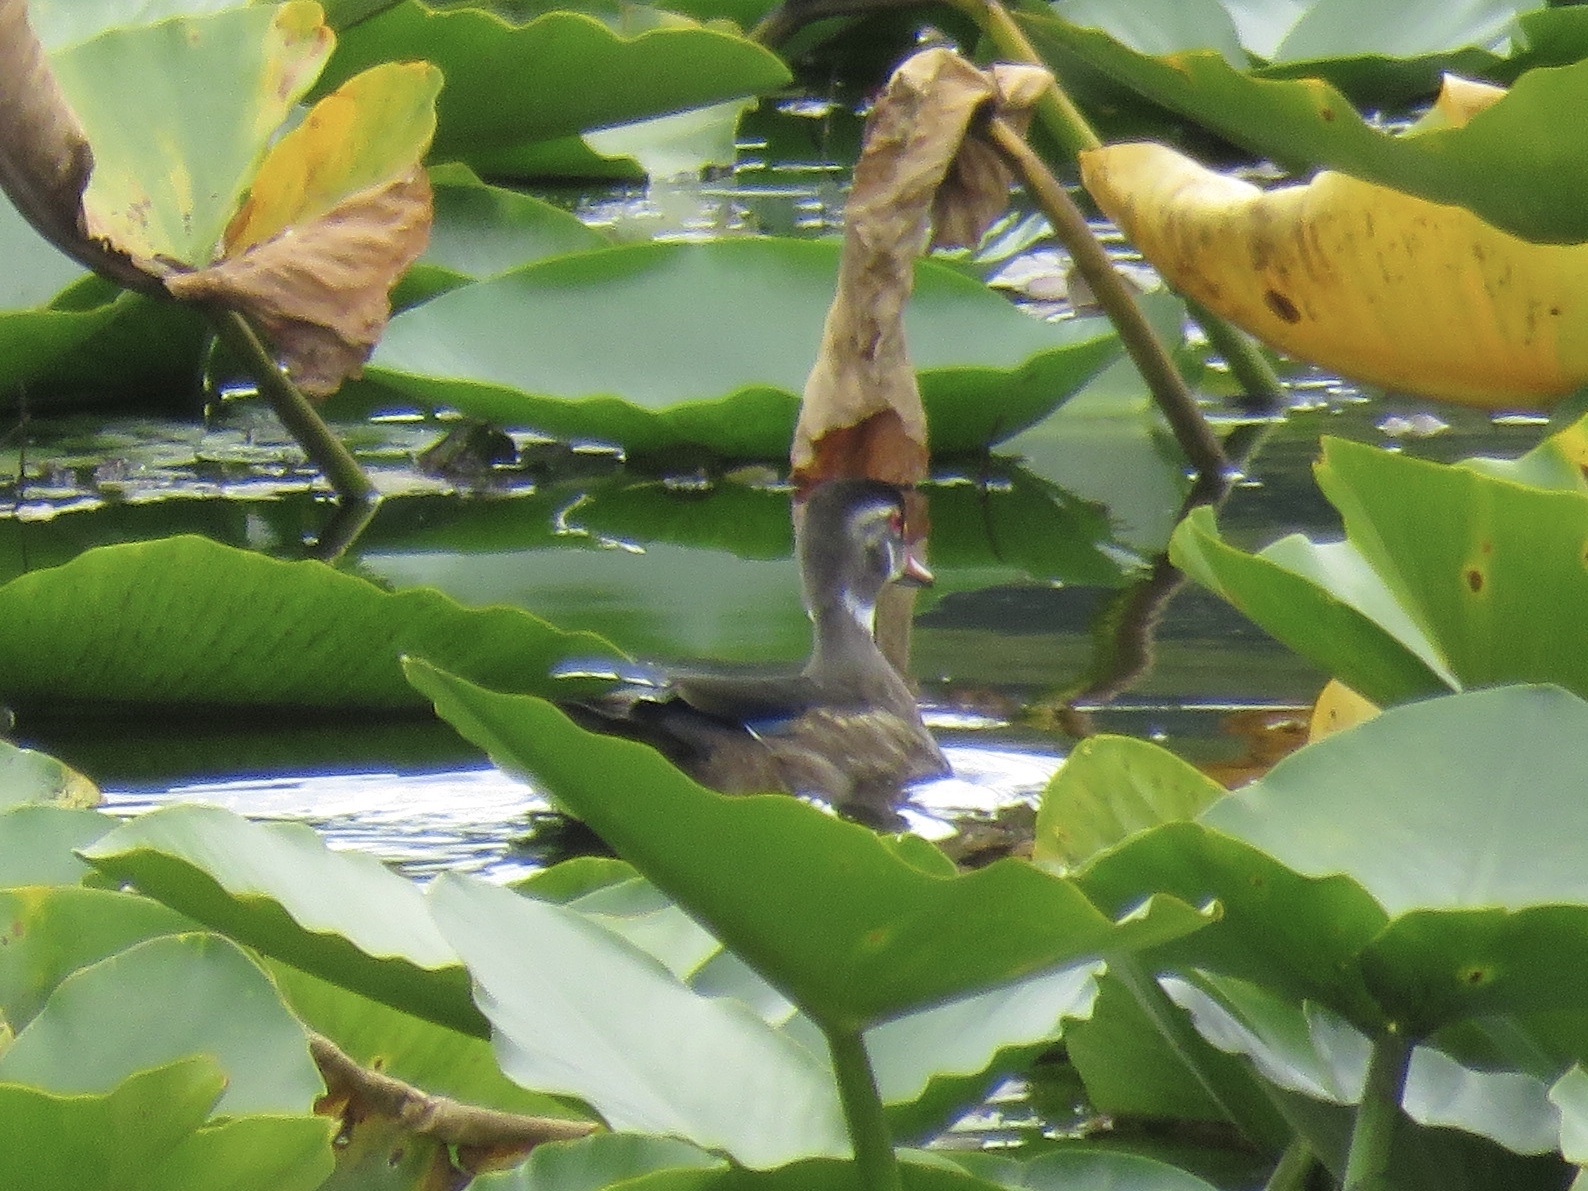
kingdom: Animalia
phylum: Chordata
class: Aves
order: Anseriformes
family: Anatidae
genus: Aix
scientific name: Aix sponsa
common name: Wood duck
